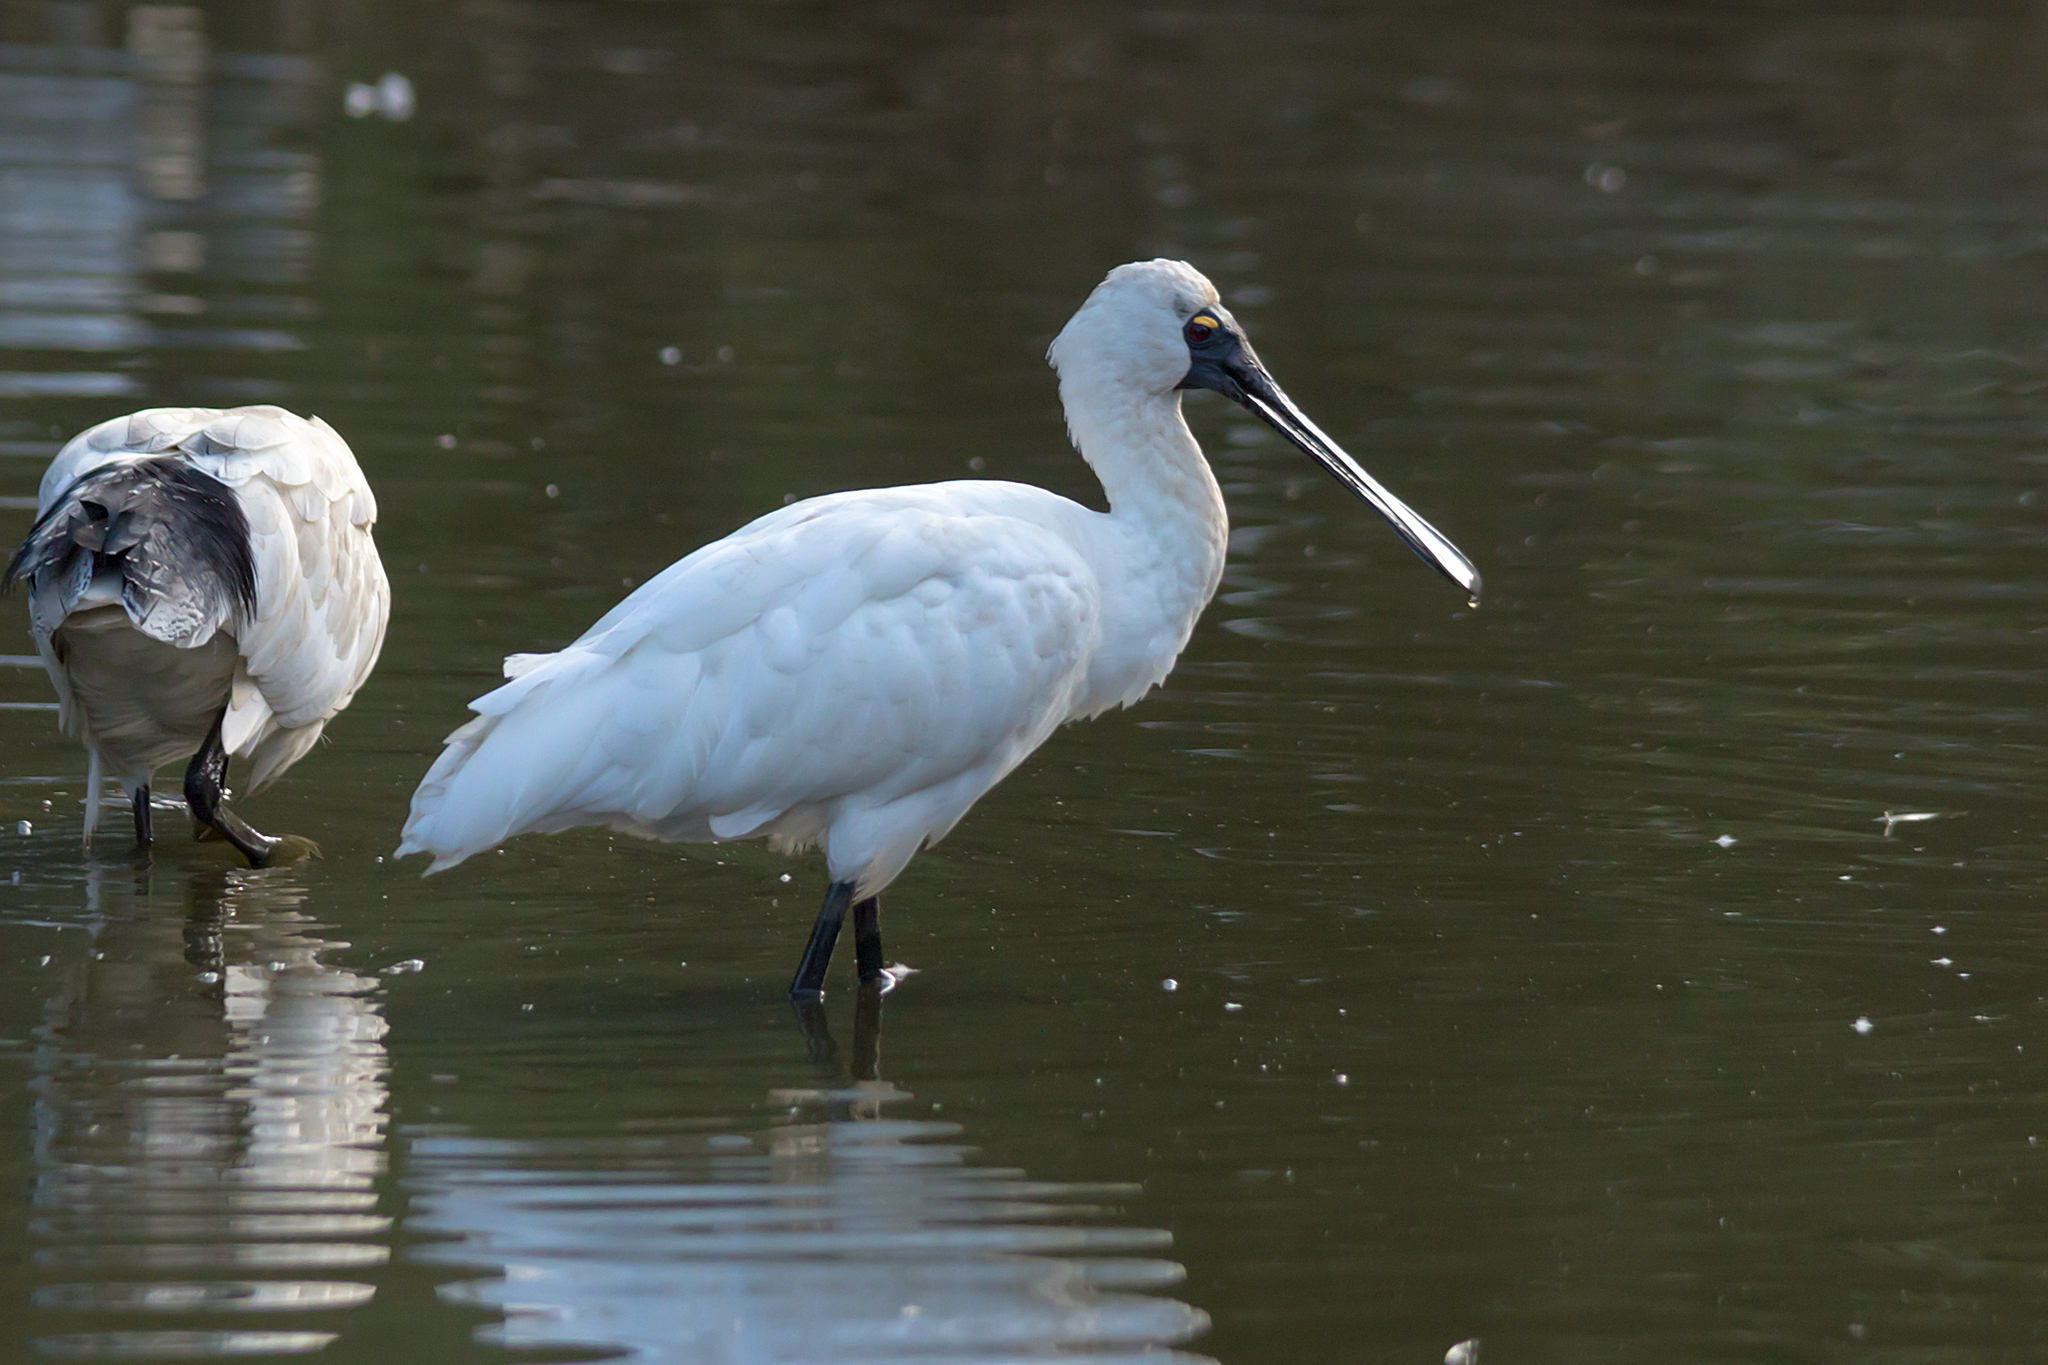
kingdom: Animalia
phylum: Chordata
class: Aves
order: Pelecaniformes
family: Threskiornithidae
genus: Platalea
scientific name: Platalea regia
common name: Royal spoonbill
